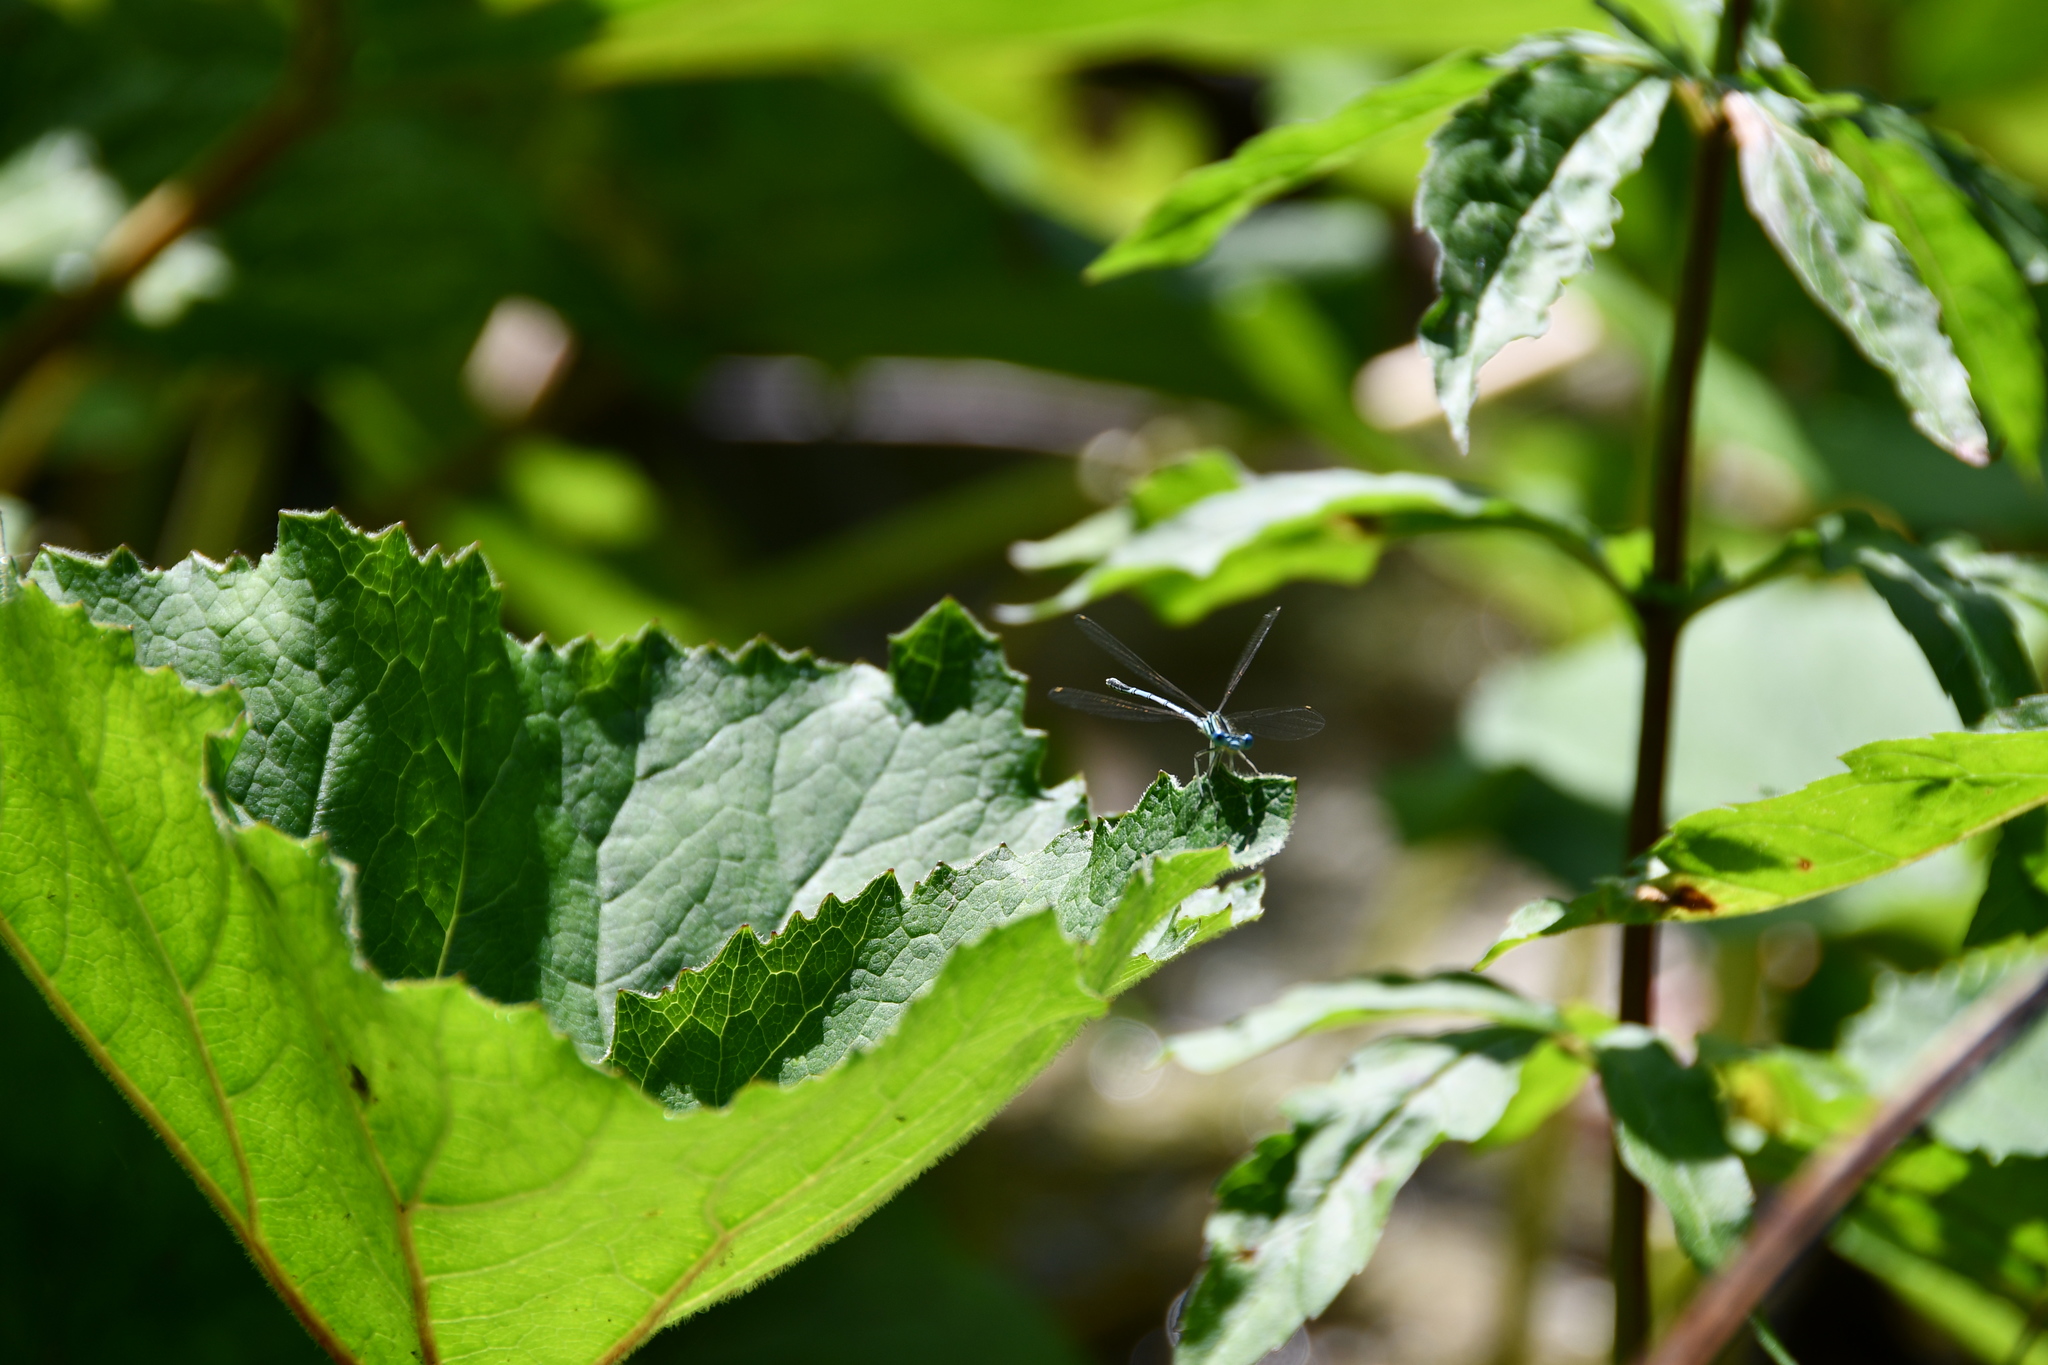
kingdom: Animalia
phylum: Arthropoda
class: Insecta
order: Odonata
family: Platycnemididae
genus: Platycnemis
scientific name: Platycnemis pennipes
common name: White-legged damselfly
